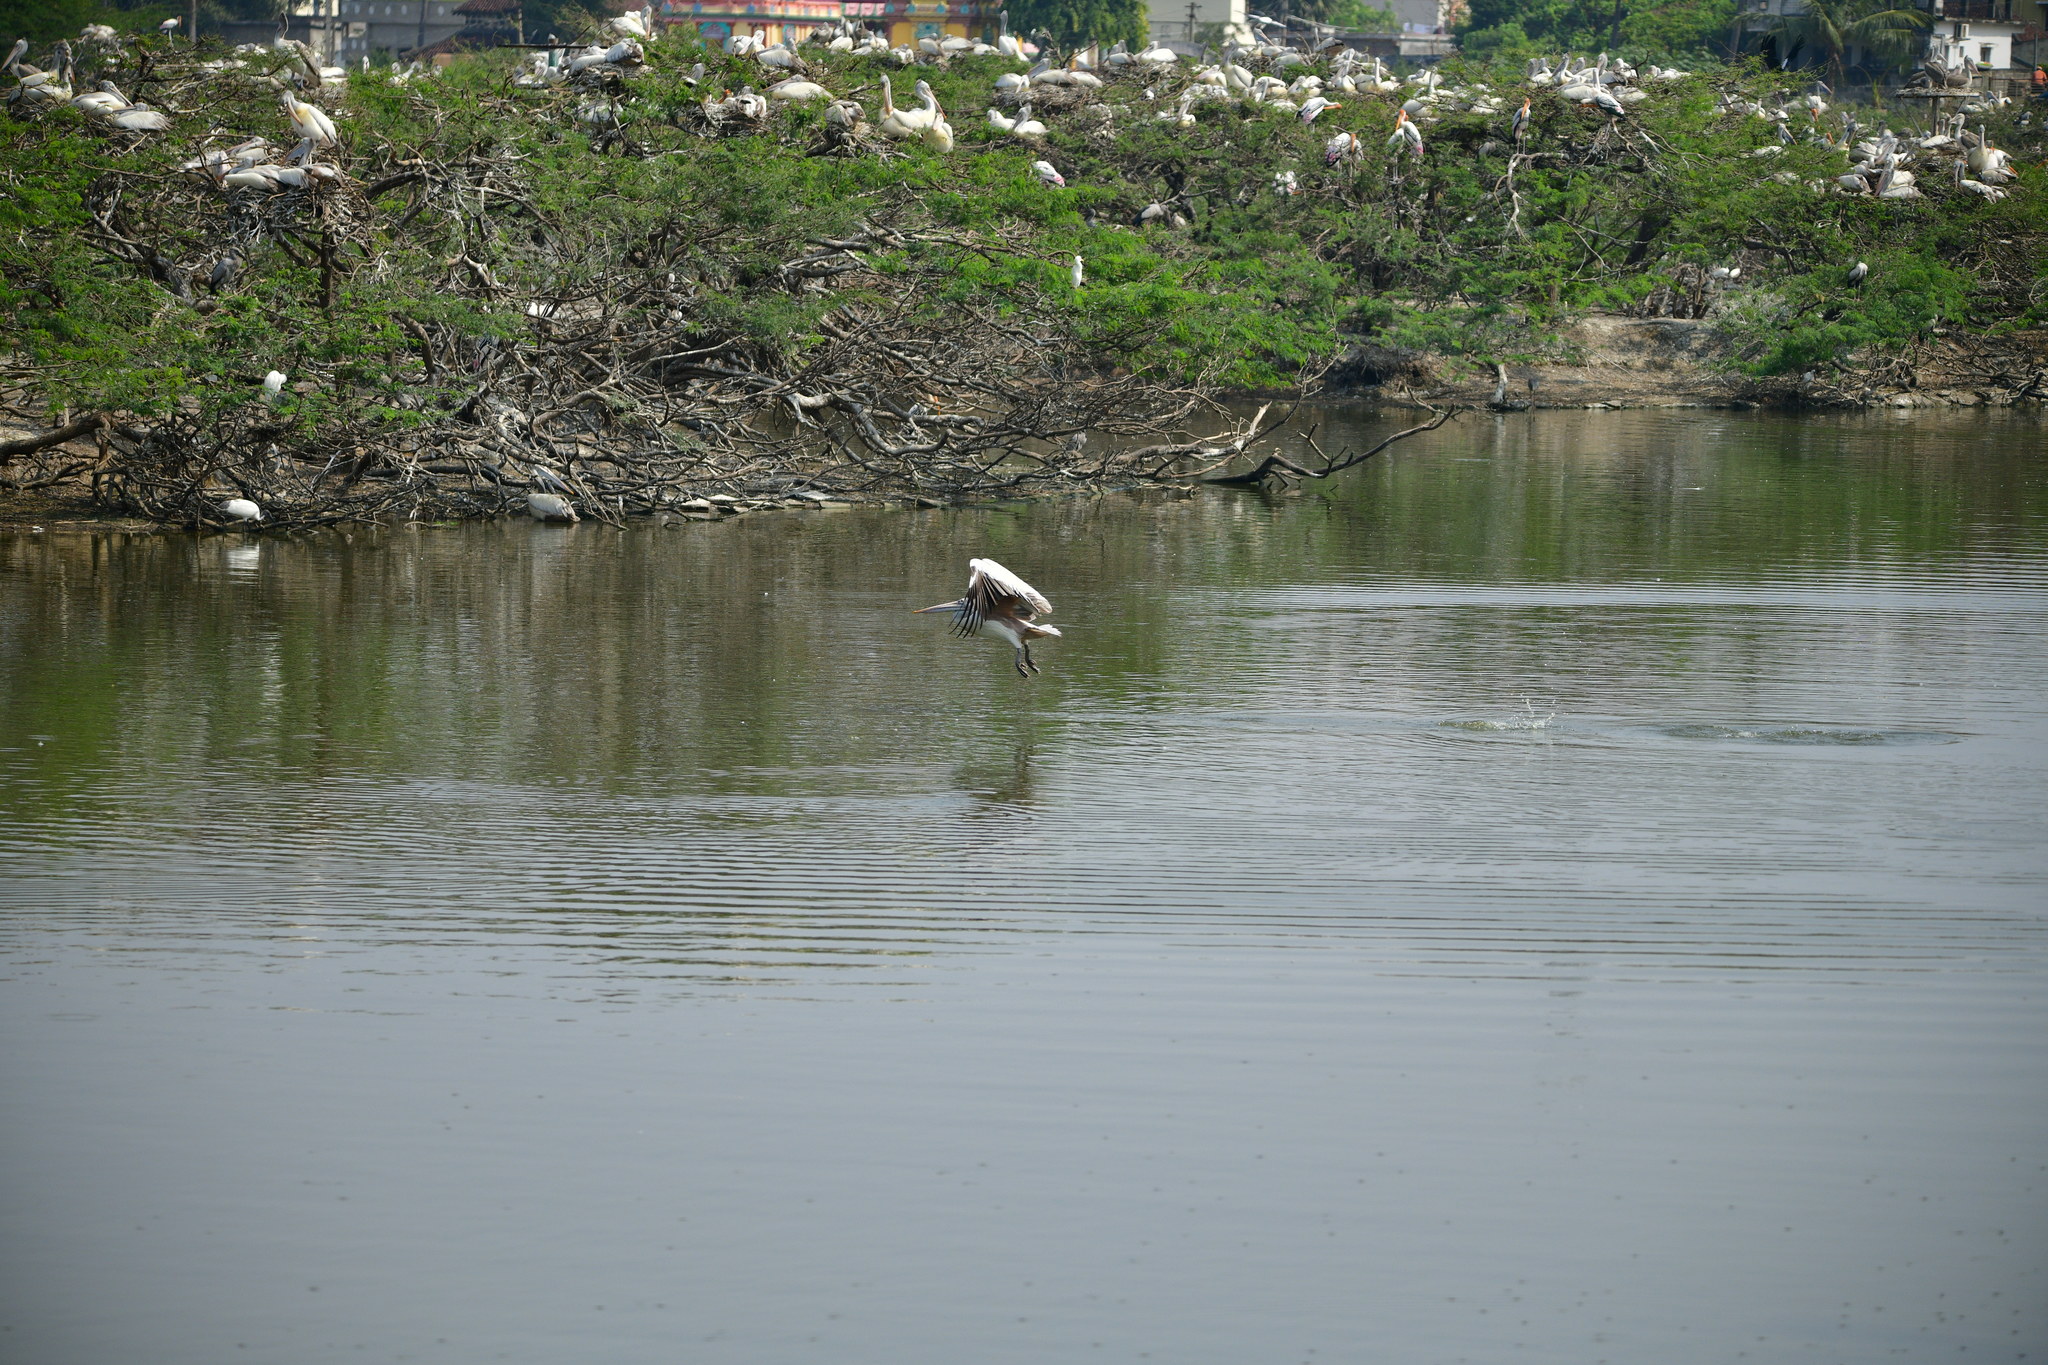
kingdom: Animalia
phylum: Chordata
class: Aves
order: Pelecaniformes
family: Pelecanidae
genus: Pelecanus
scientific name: Pelecanus philippensis
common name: Spot-billed pelican
